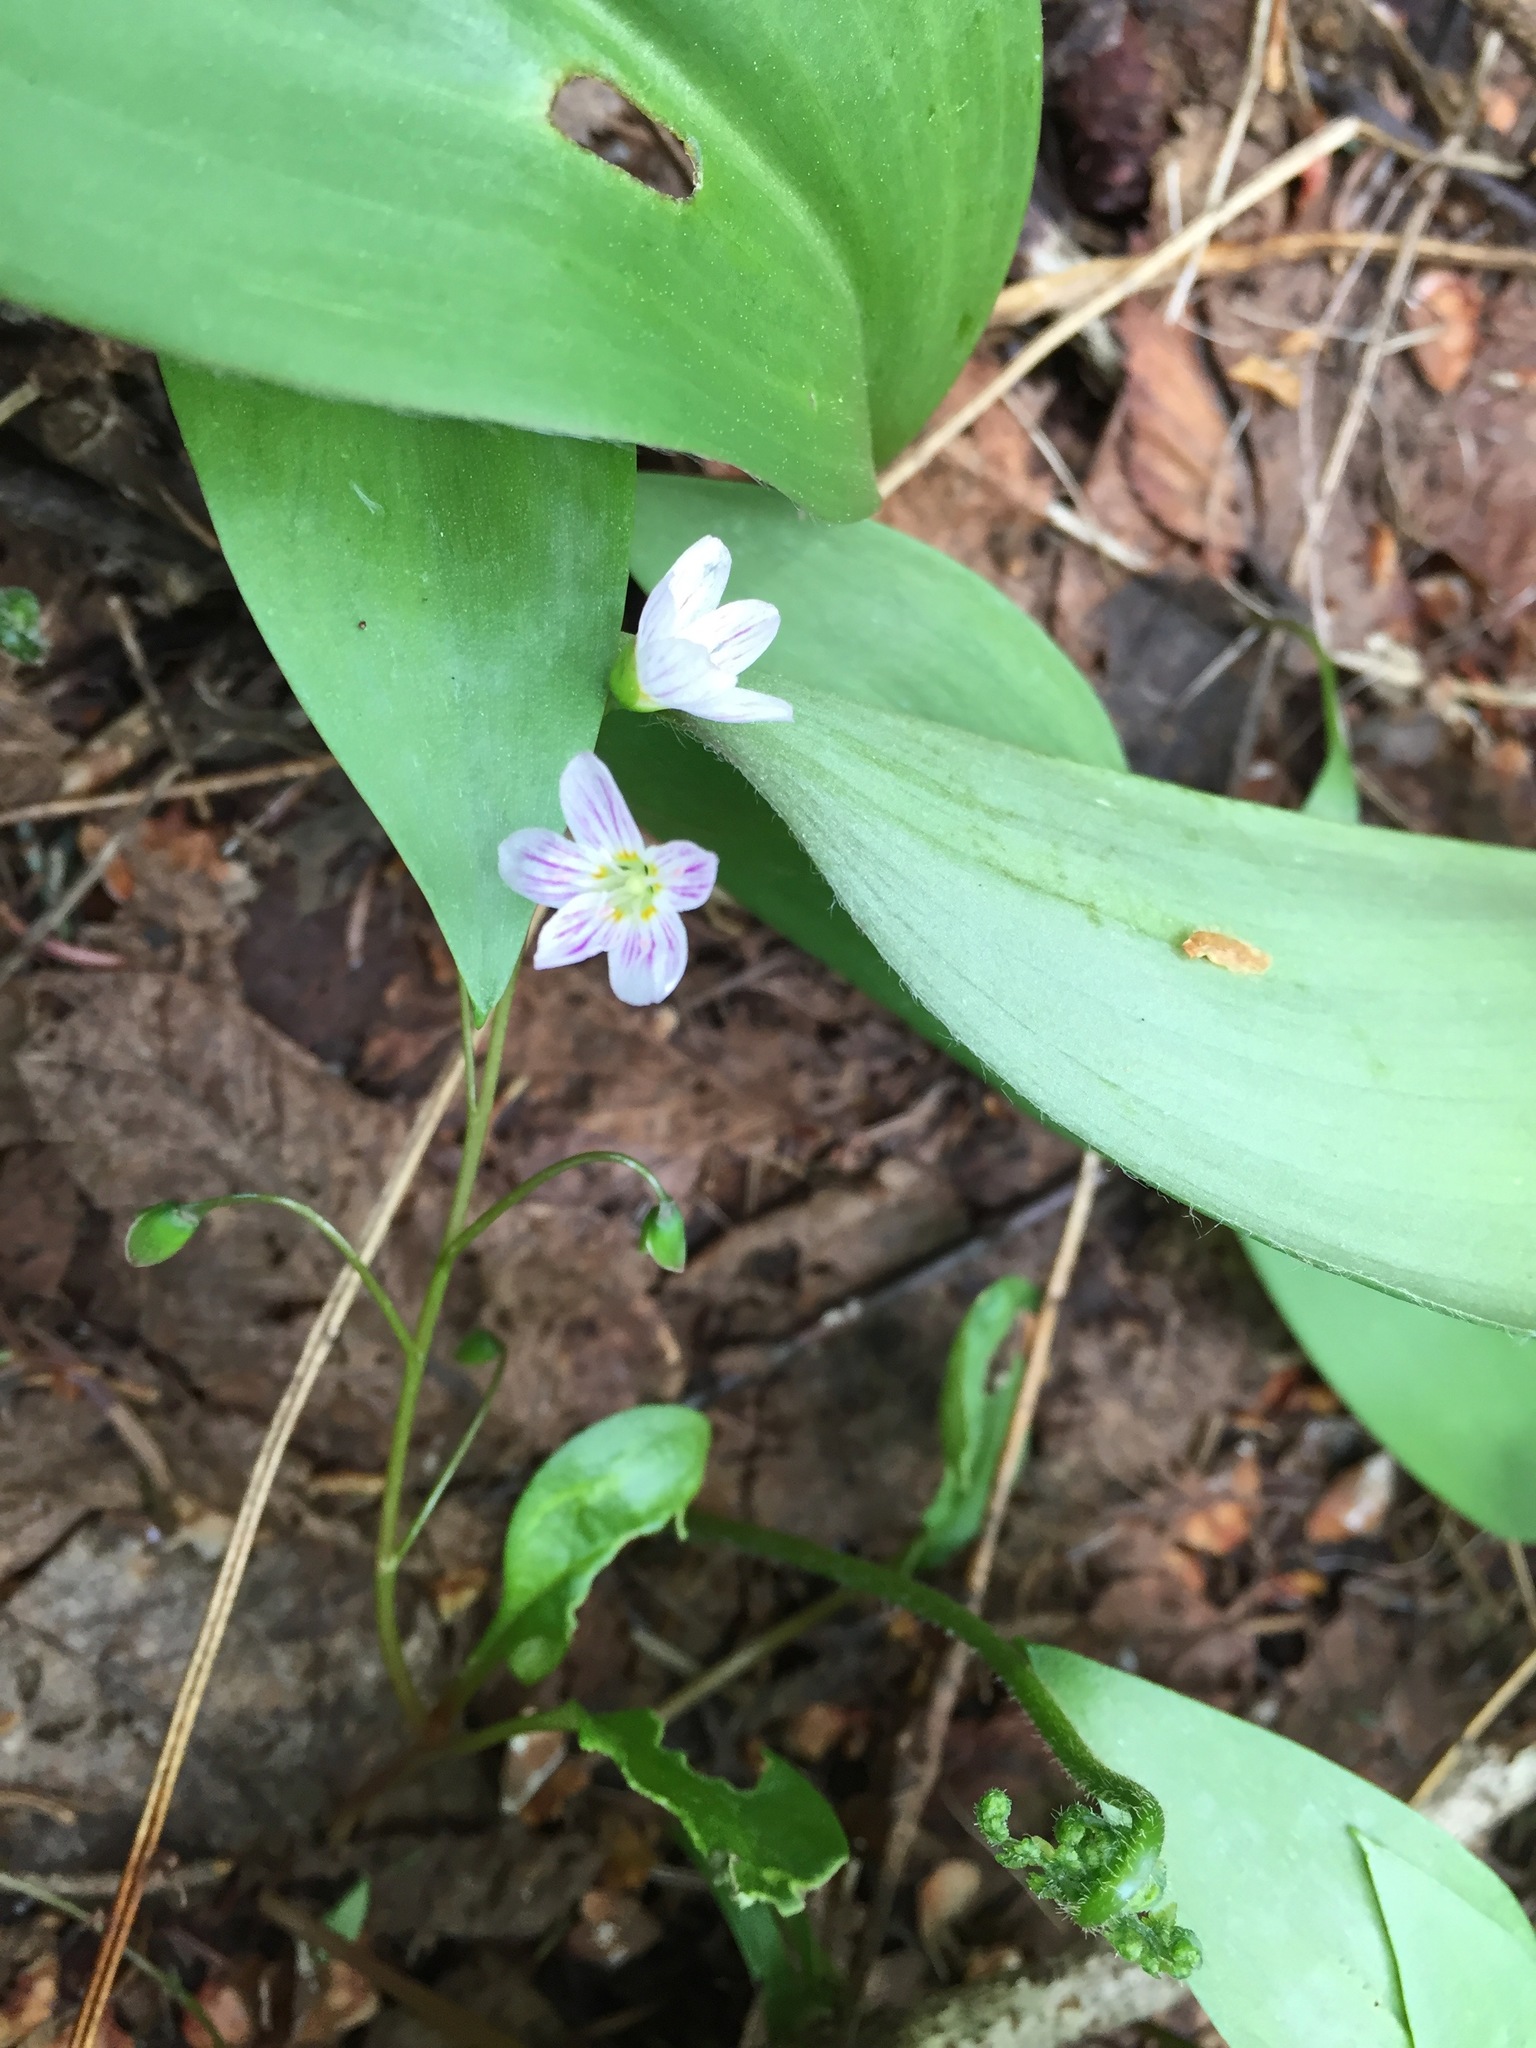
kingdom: Plantae
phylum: Tracheophyta
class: Magnoliopsida
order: Caryophyllales
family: Montiaceae
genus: Claytonia
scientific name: Claytonia caroliniana
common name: Carolina spring beauty
